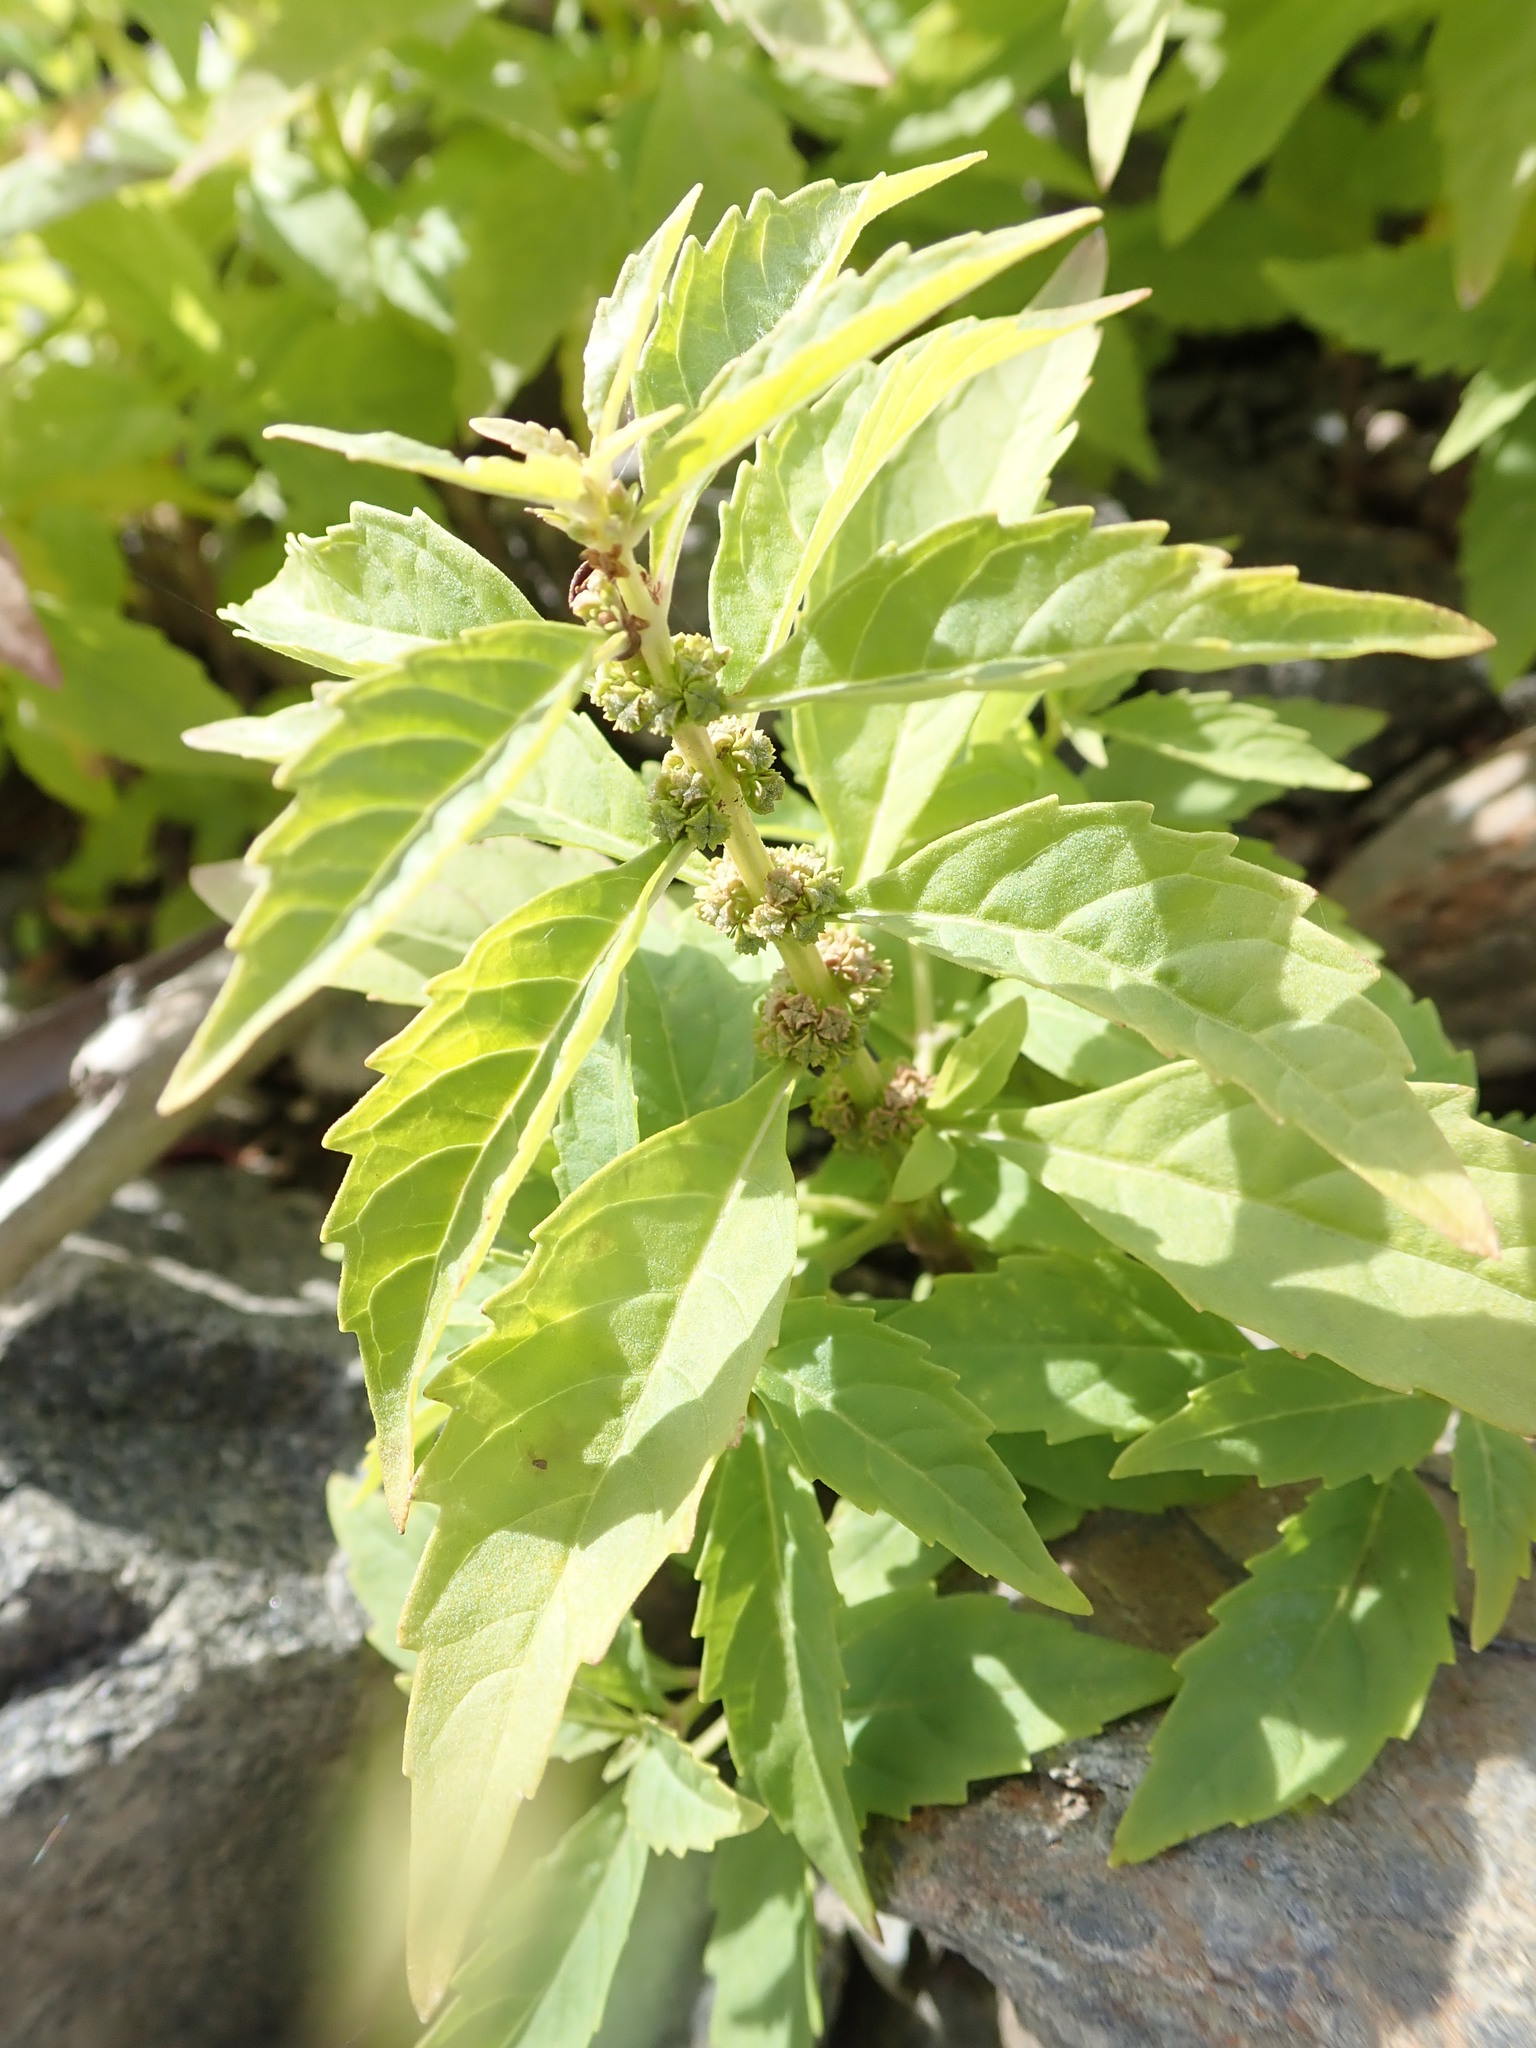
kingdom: Plantae
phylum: Tracheophyta
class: Magnoliopsida
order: Lamiales
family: Lamiaceae
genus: Lycopus
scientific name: Lycopus uniflorus
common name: Northern bugleweed
